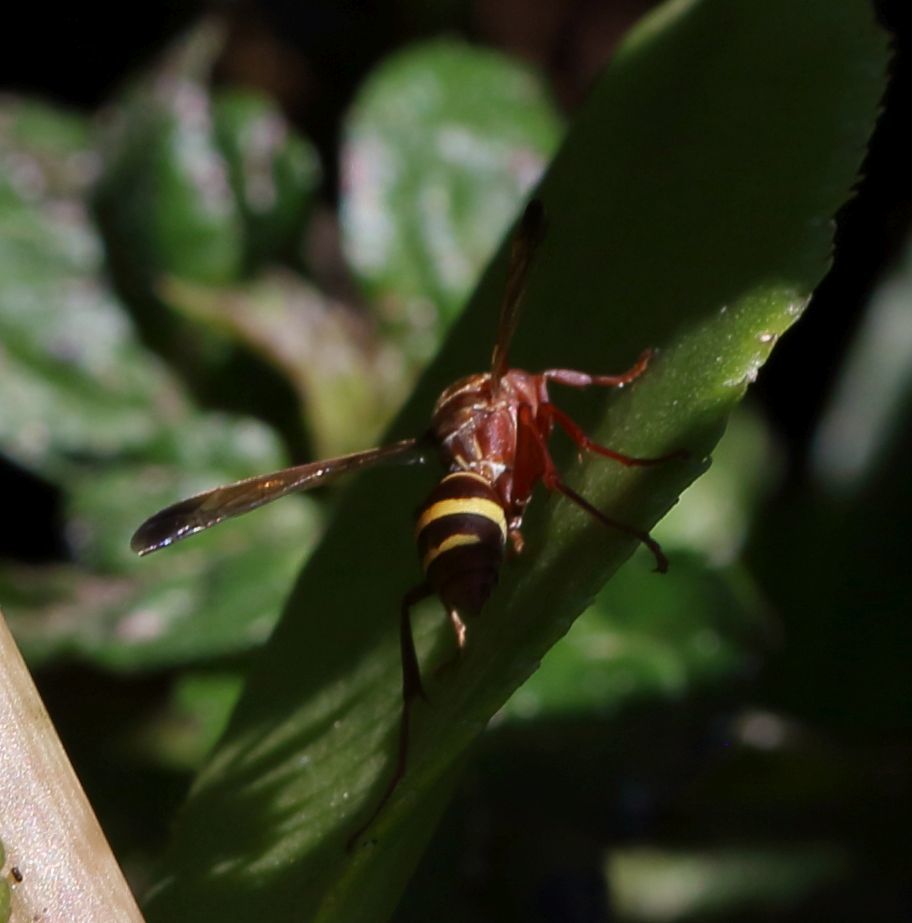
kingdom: Animalia
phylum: Arthropoda
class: Insecta
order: Hymenoptera
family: Eumenidae
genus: Polistes
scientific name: Polistes badius
